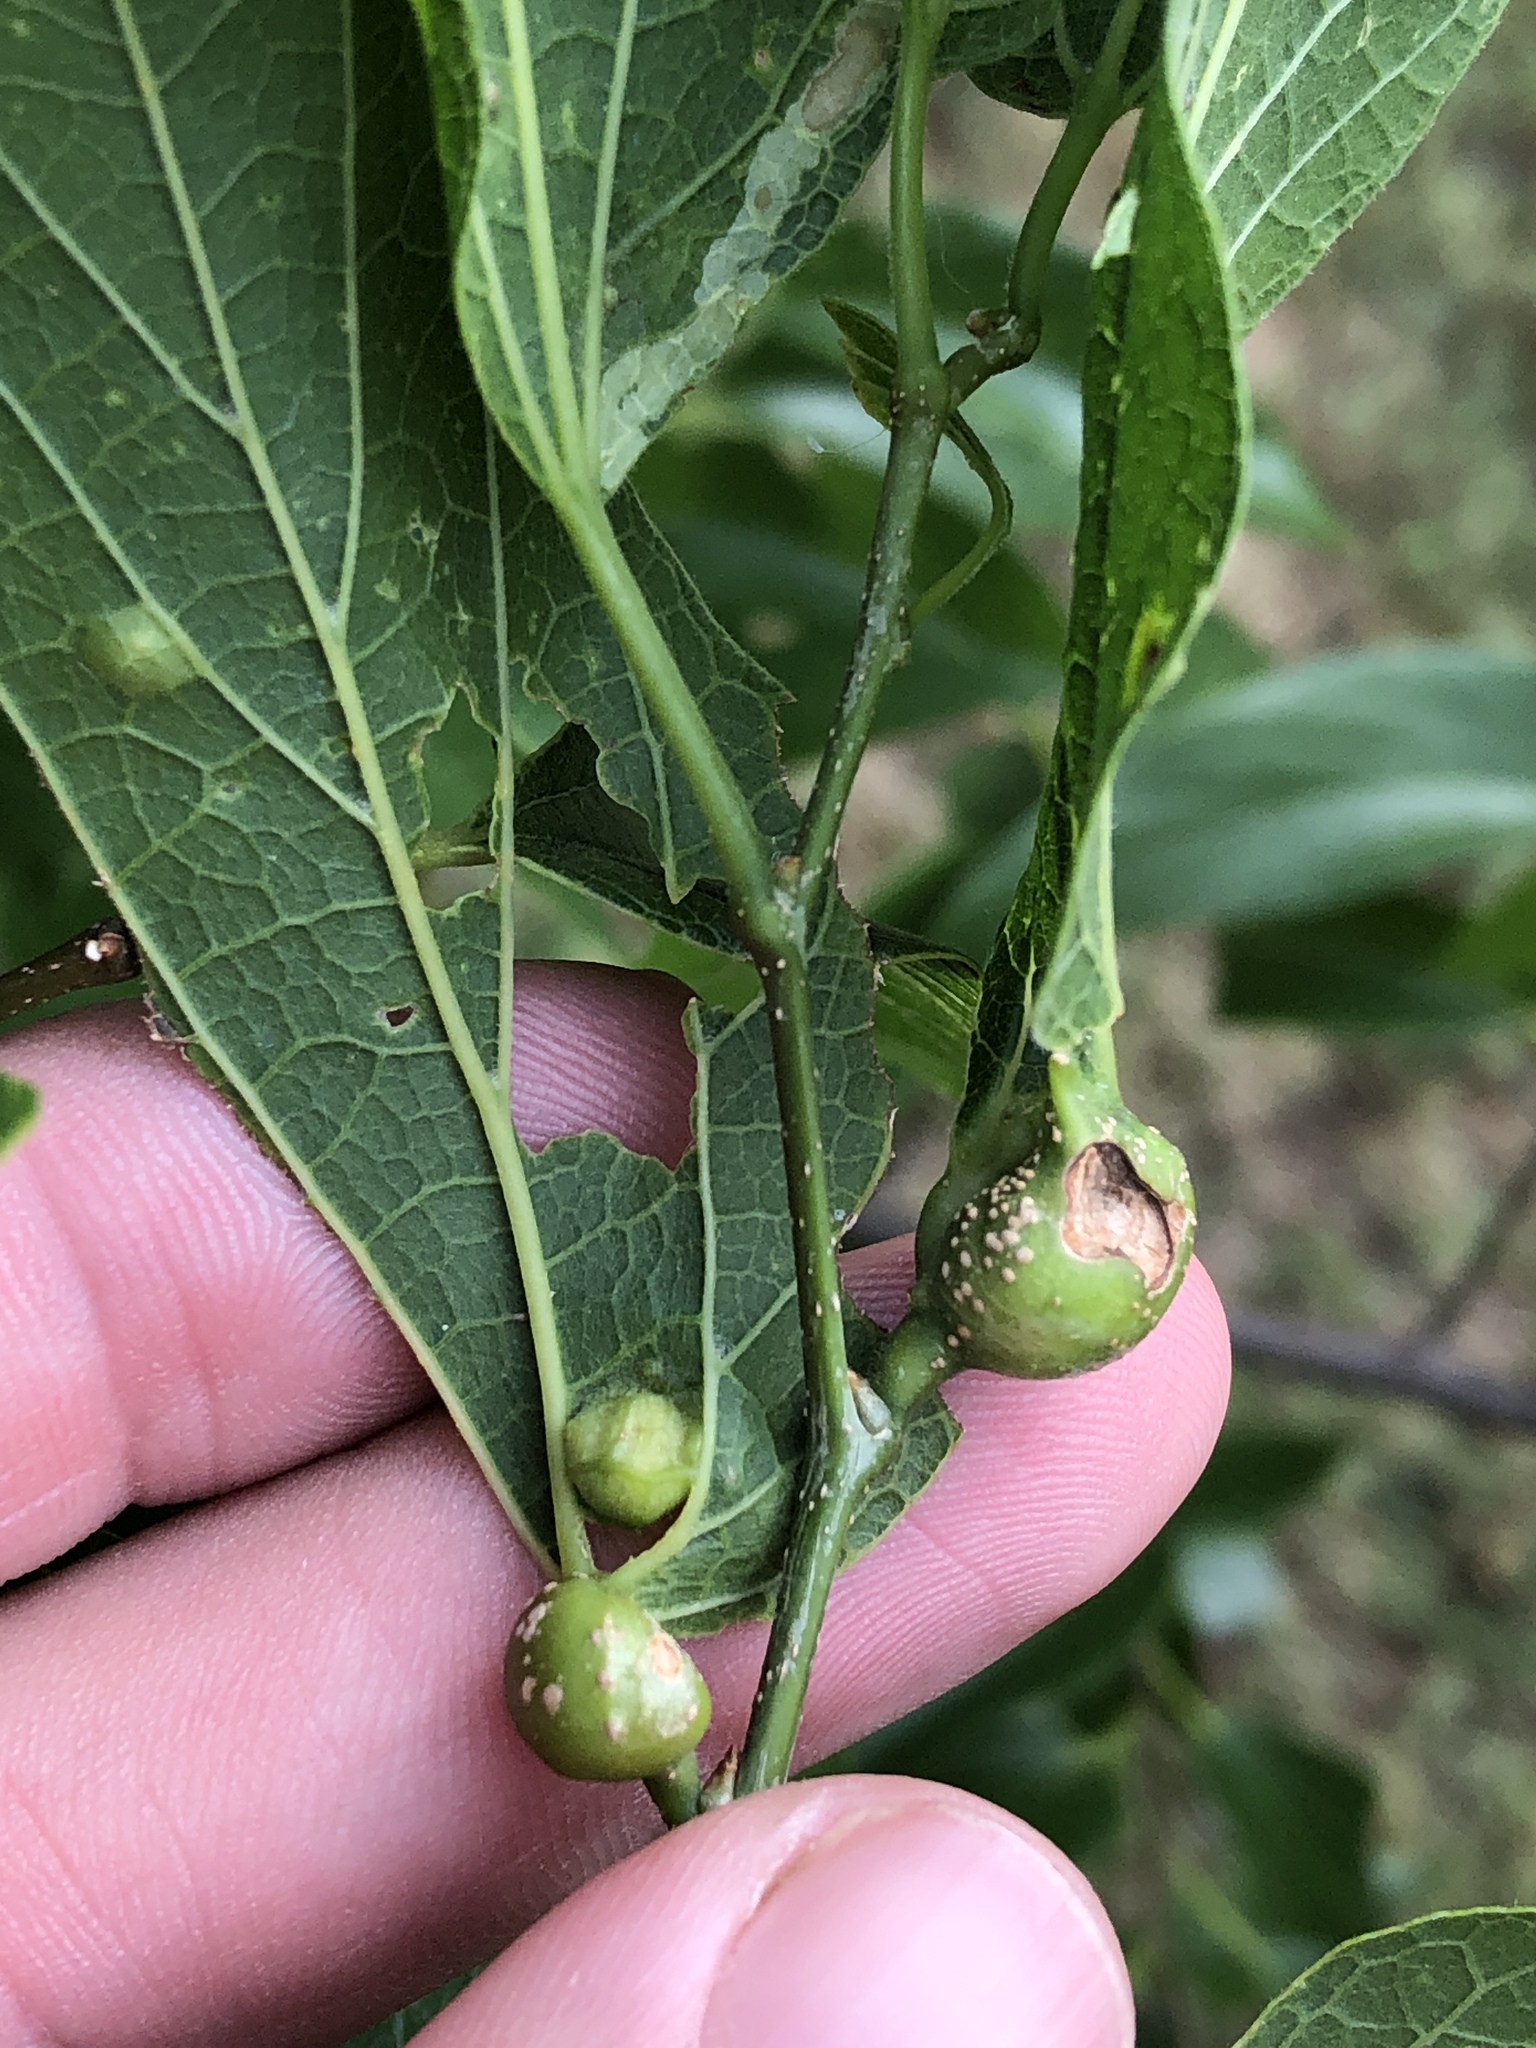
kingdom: Animalia
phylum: Arthropoda
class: Insecta
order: Hemiptera
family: Aphalaridae
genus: Pachypsylla
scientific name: Pachypsylla venusta
